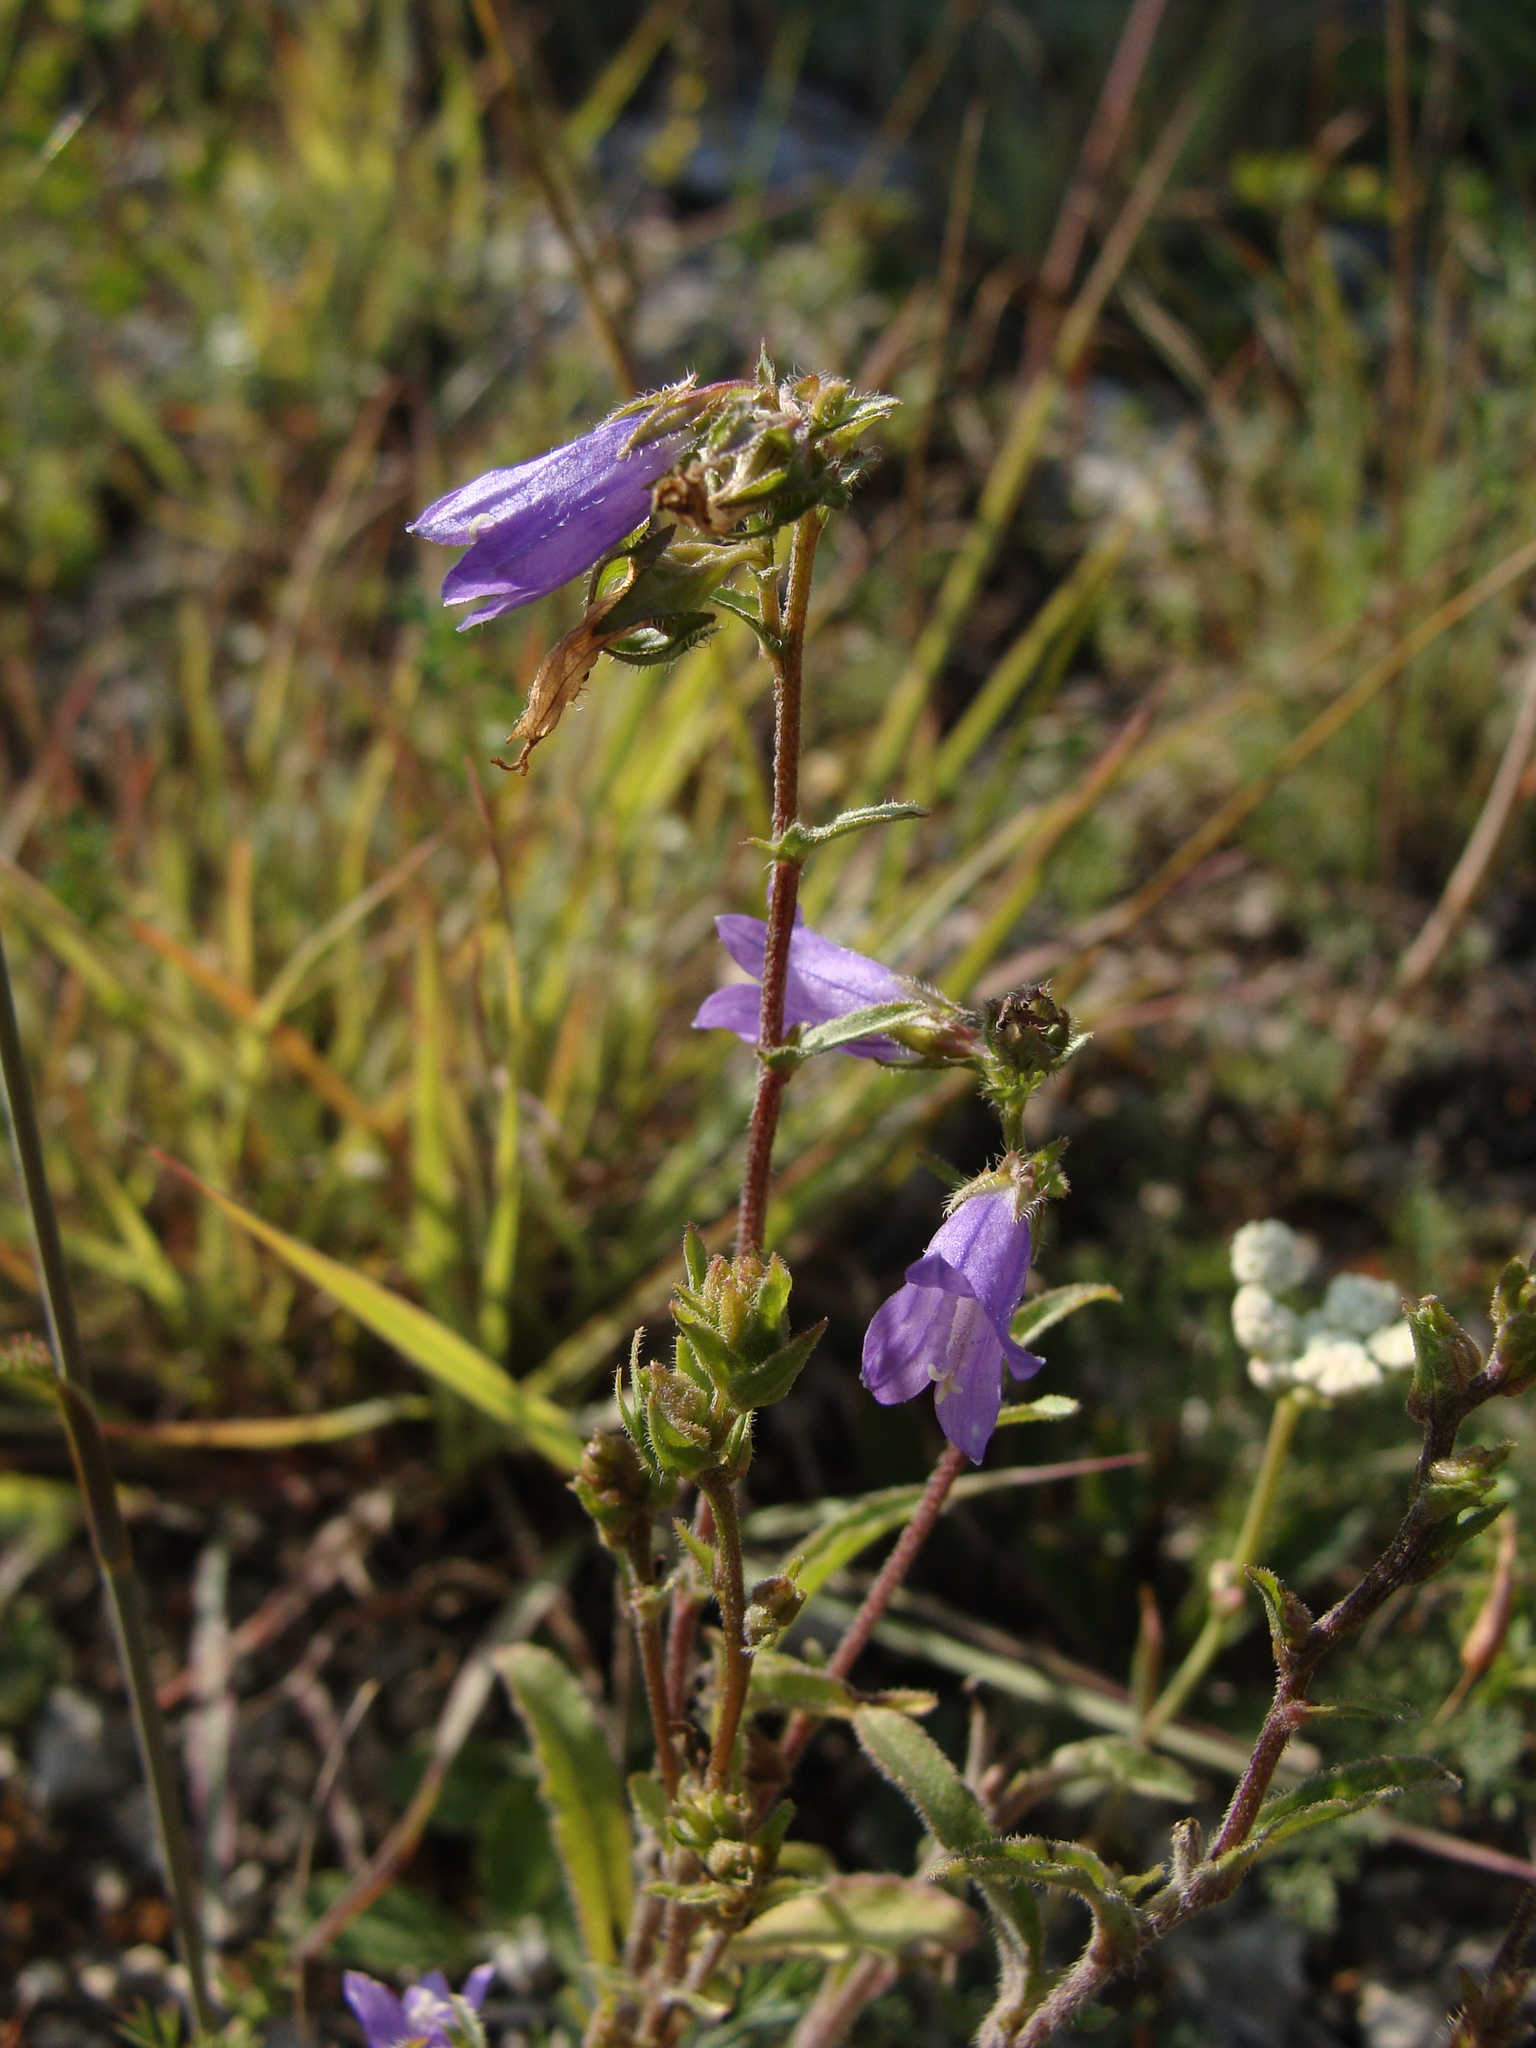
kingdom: Plantae
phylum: Tracheophyta
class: Magnoliopsida
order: Asterales
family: Campanulaceae
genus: Campanula
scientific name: Campanula sibirica
